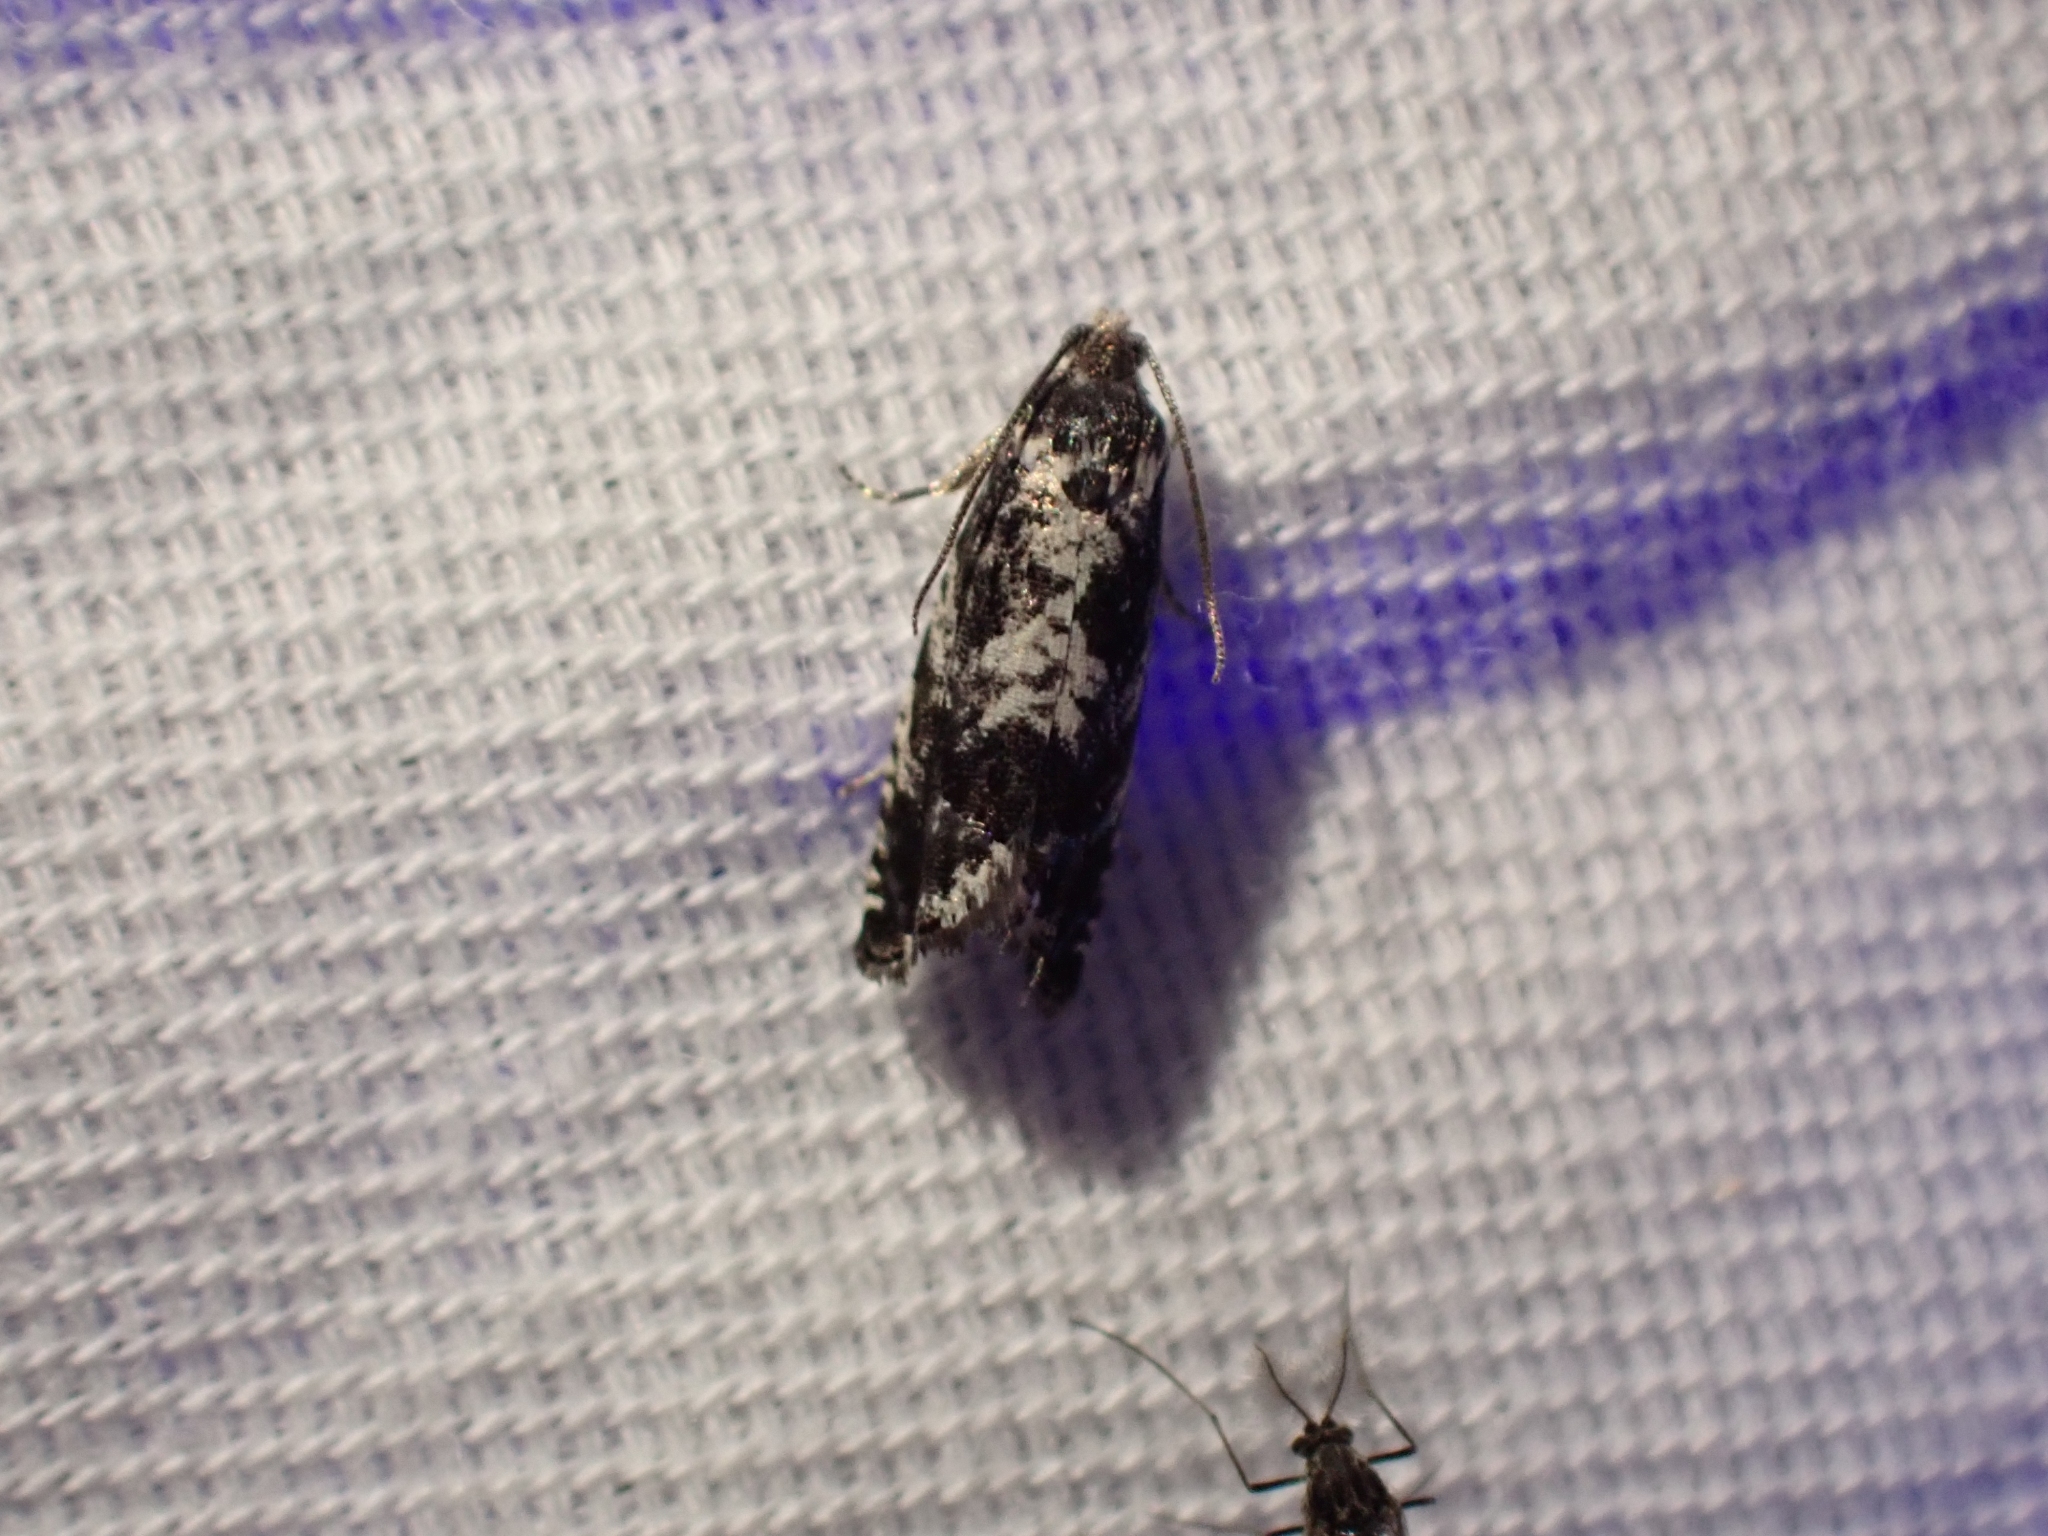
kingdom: Animalia
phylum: Arthropoda
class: Insecta
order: Lepidoptera
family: Tortricidae
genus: Cydia
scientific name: Cydia populana
